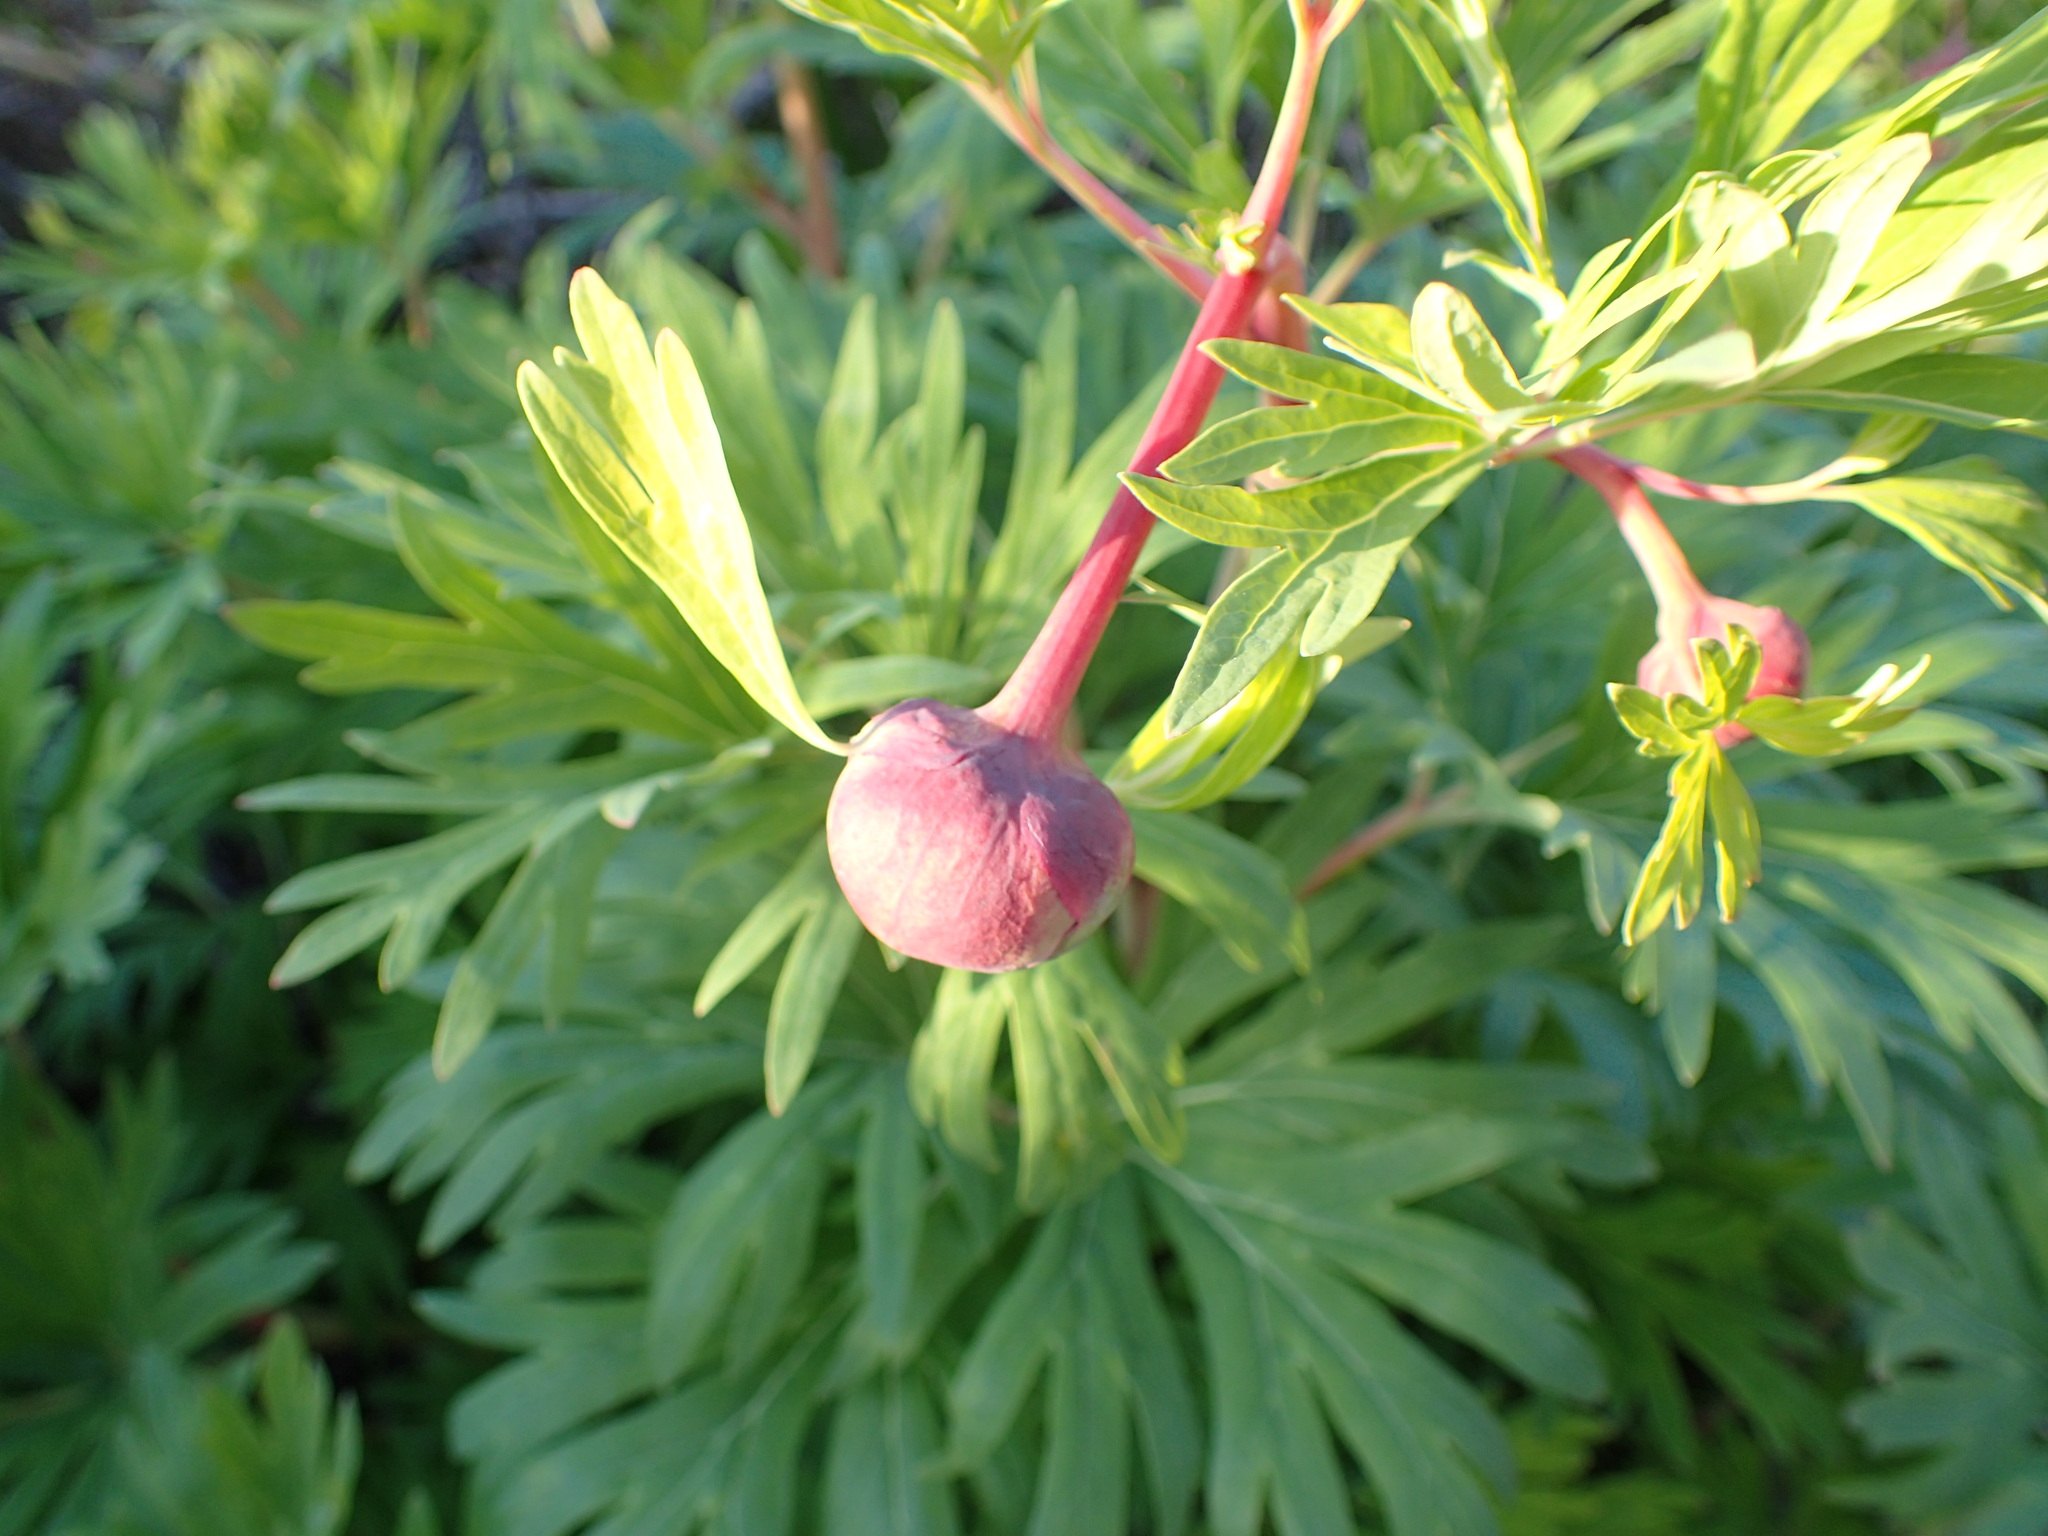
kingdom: Plantae
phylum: Tracheophyta
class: Magnoliopsida
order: Saxifragales
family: Paeoniaceae
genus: Paeonia
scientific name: Paeonia californica
